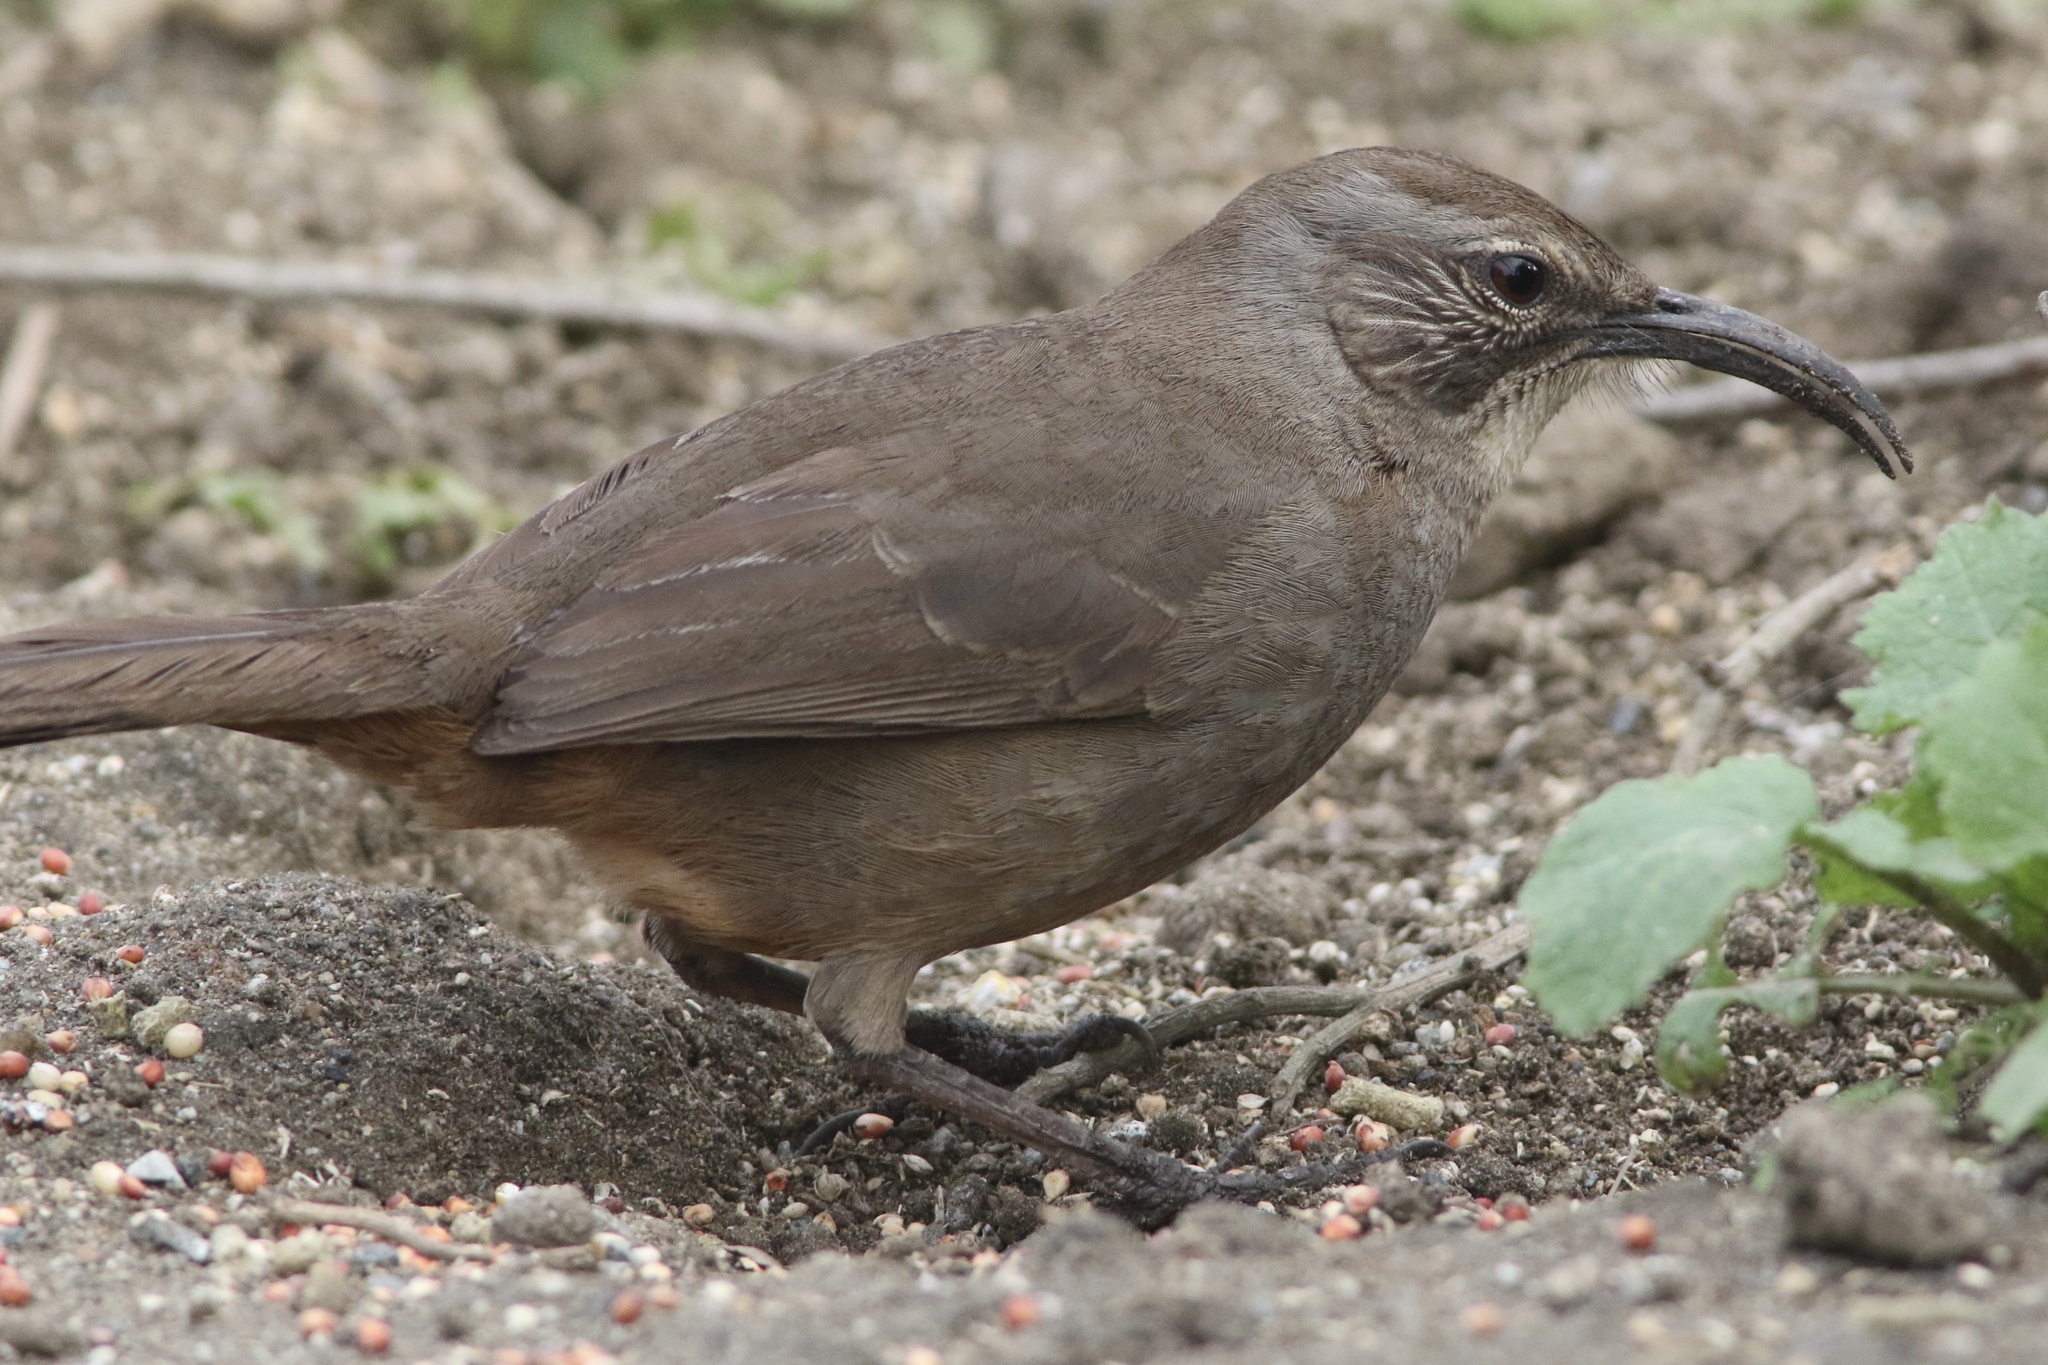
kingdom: Animalia
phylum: Chordata
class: Aves
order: Passeriformes
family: Mimidae
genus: Toxostoma
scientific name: Toxostoma redivivum
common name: California thrasher
